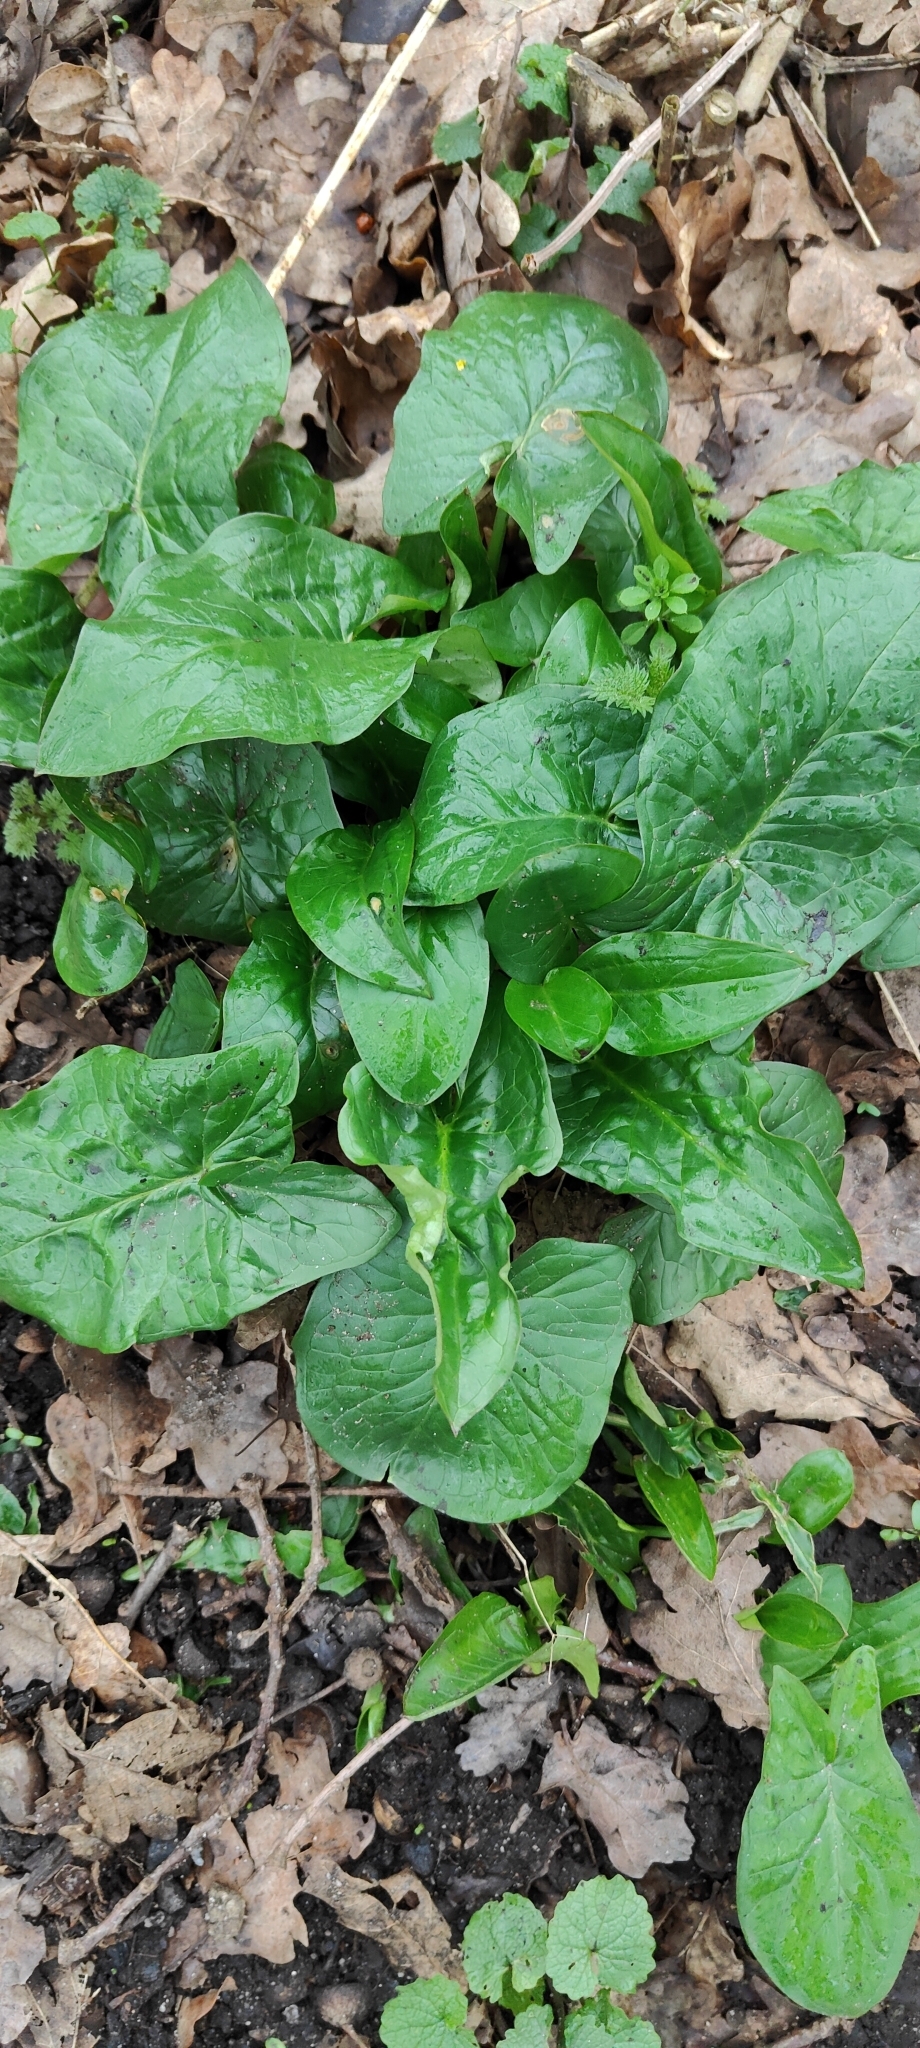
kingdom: Plantae
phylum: Tracheophyta
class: Liliopsida
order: Alismatales
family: Araceae
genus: Arum
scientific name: Arum maculatum
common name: Lords-and-ladies
